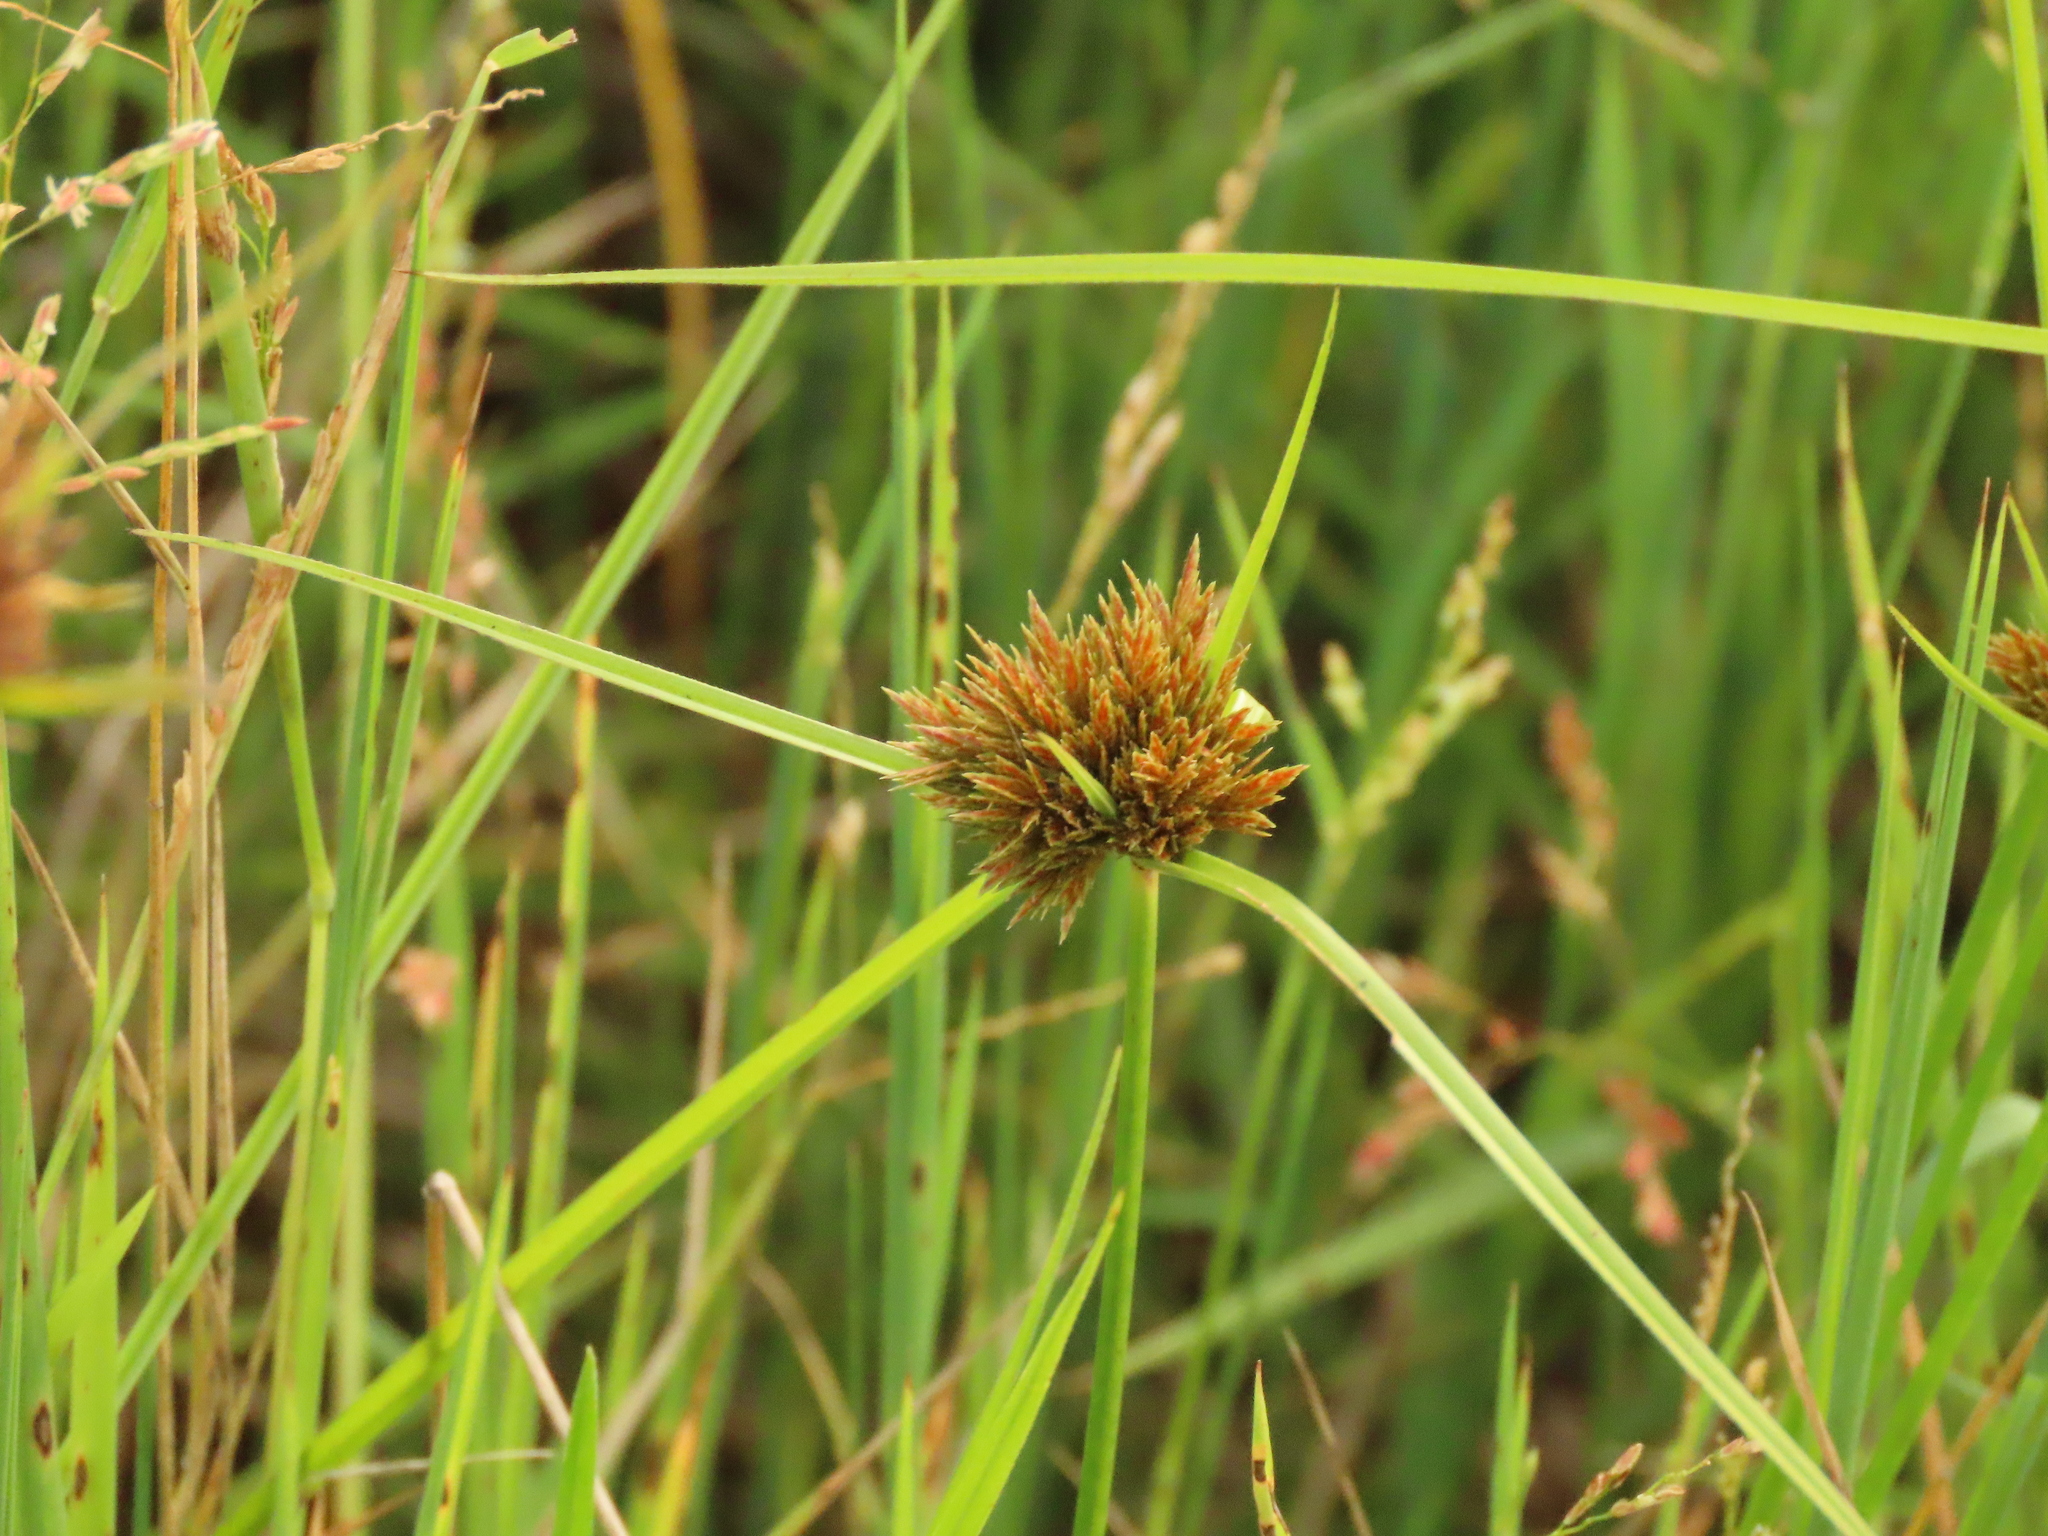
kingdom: Plantae
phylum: Tracheophyta
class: Liliopsida
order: Poales
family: Cyperaceae
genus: Cyperus
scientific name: Cyperus polystachyos
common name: Bunchy flat sedge
